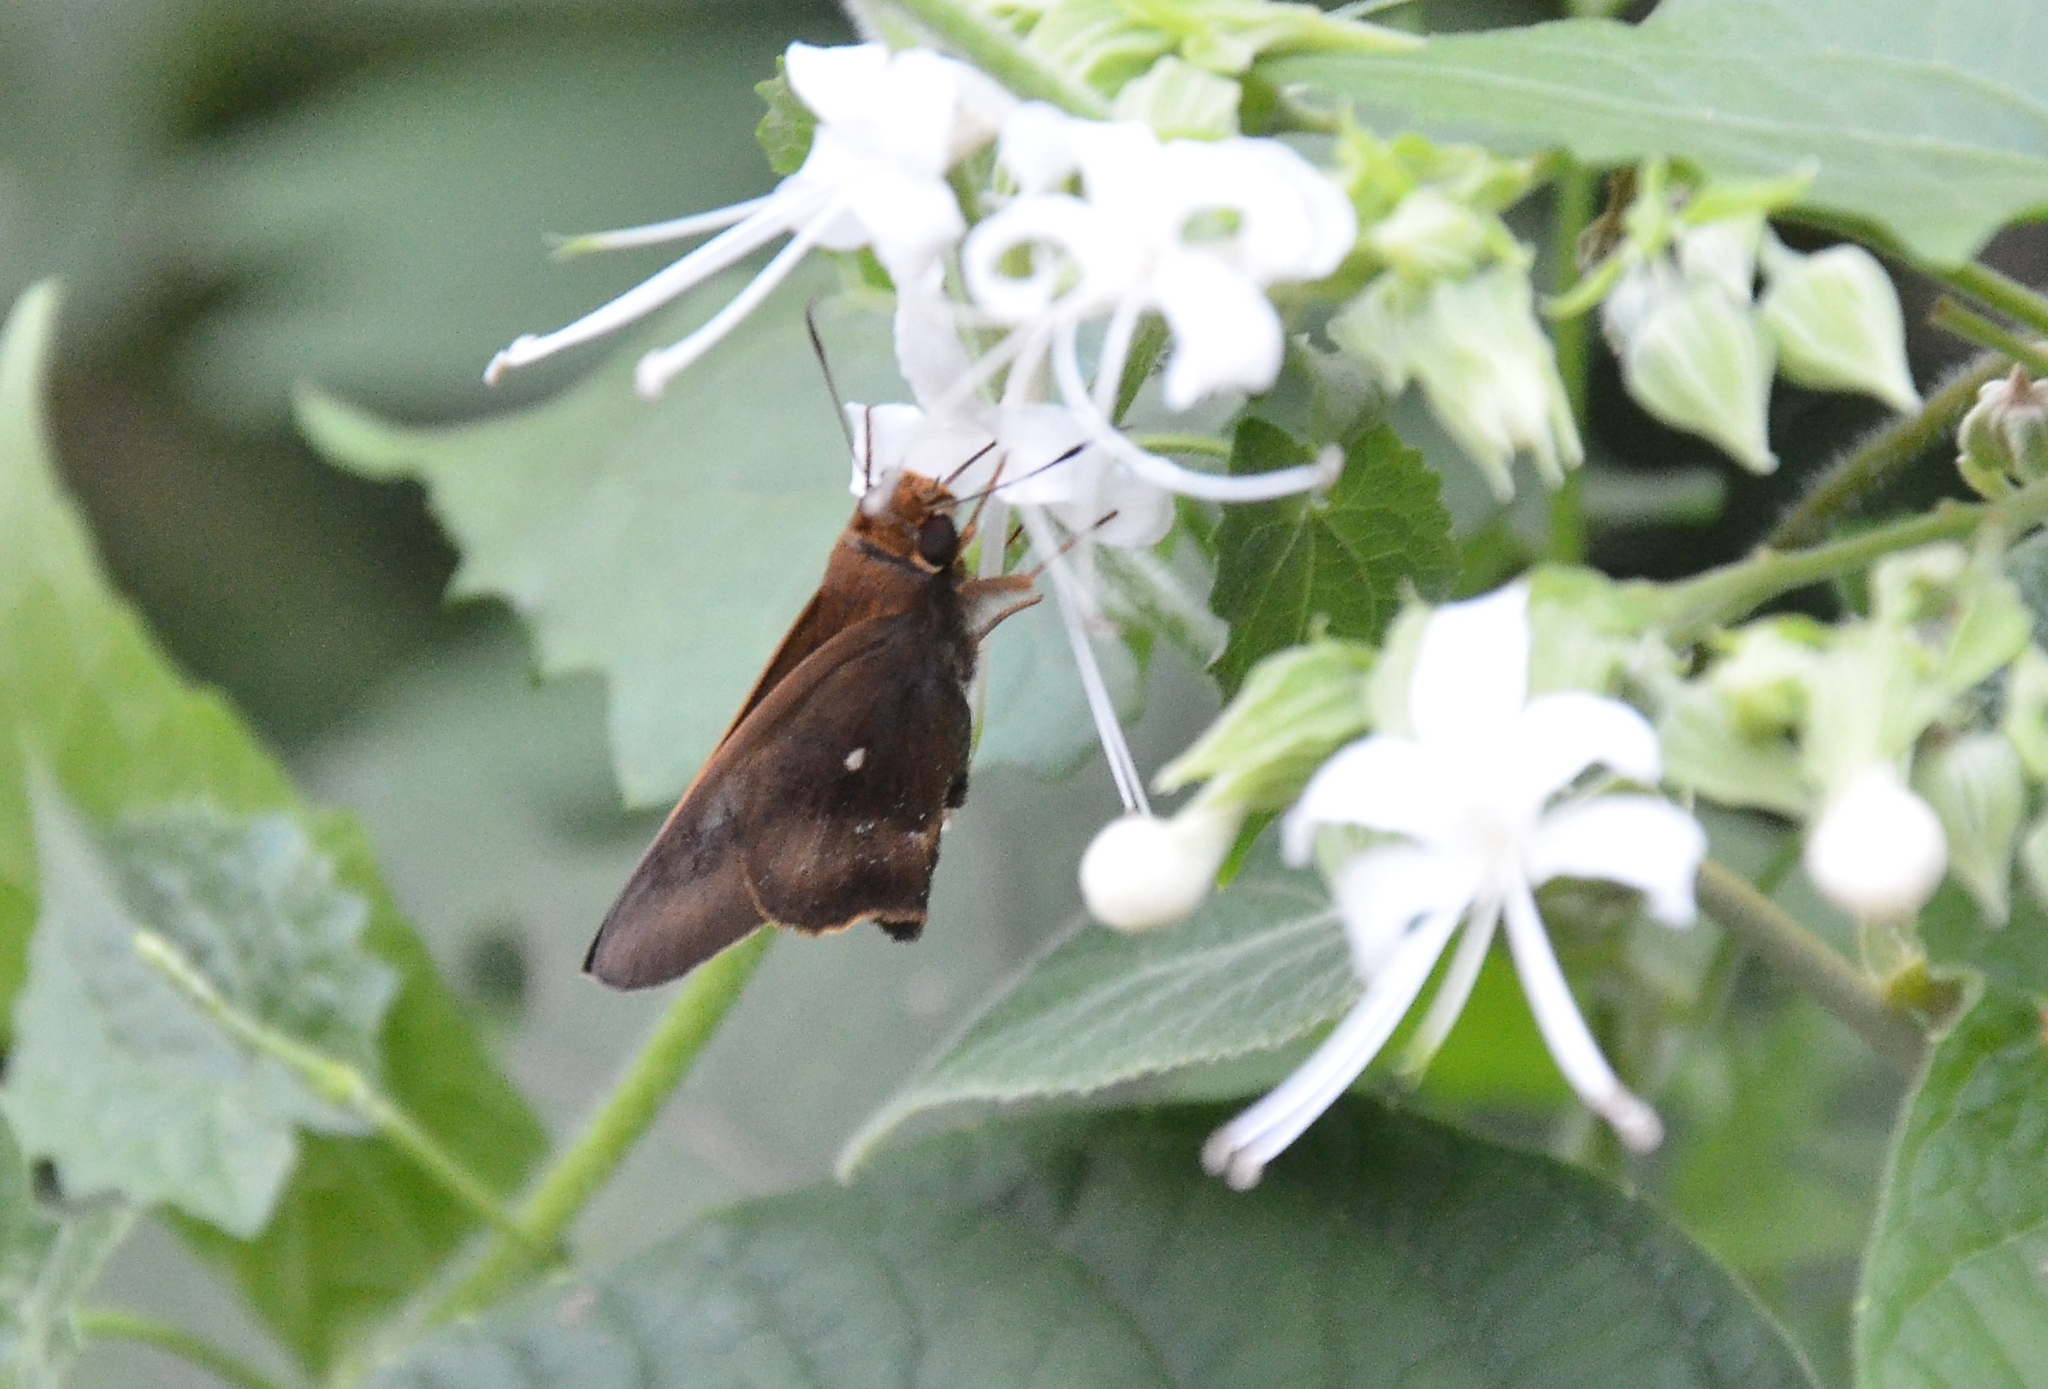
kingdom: Animalia
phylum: Arthropoda
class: Insecta
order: Lepidoptera
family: Hesperiidae
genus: Hasora
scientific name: Hasora badra
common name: Common awl
